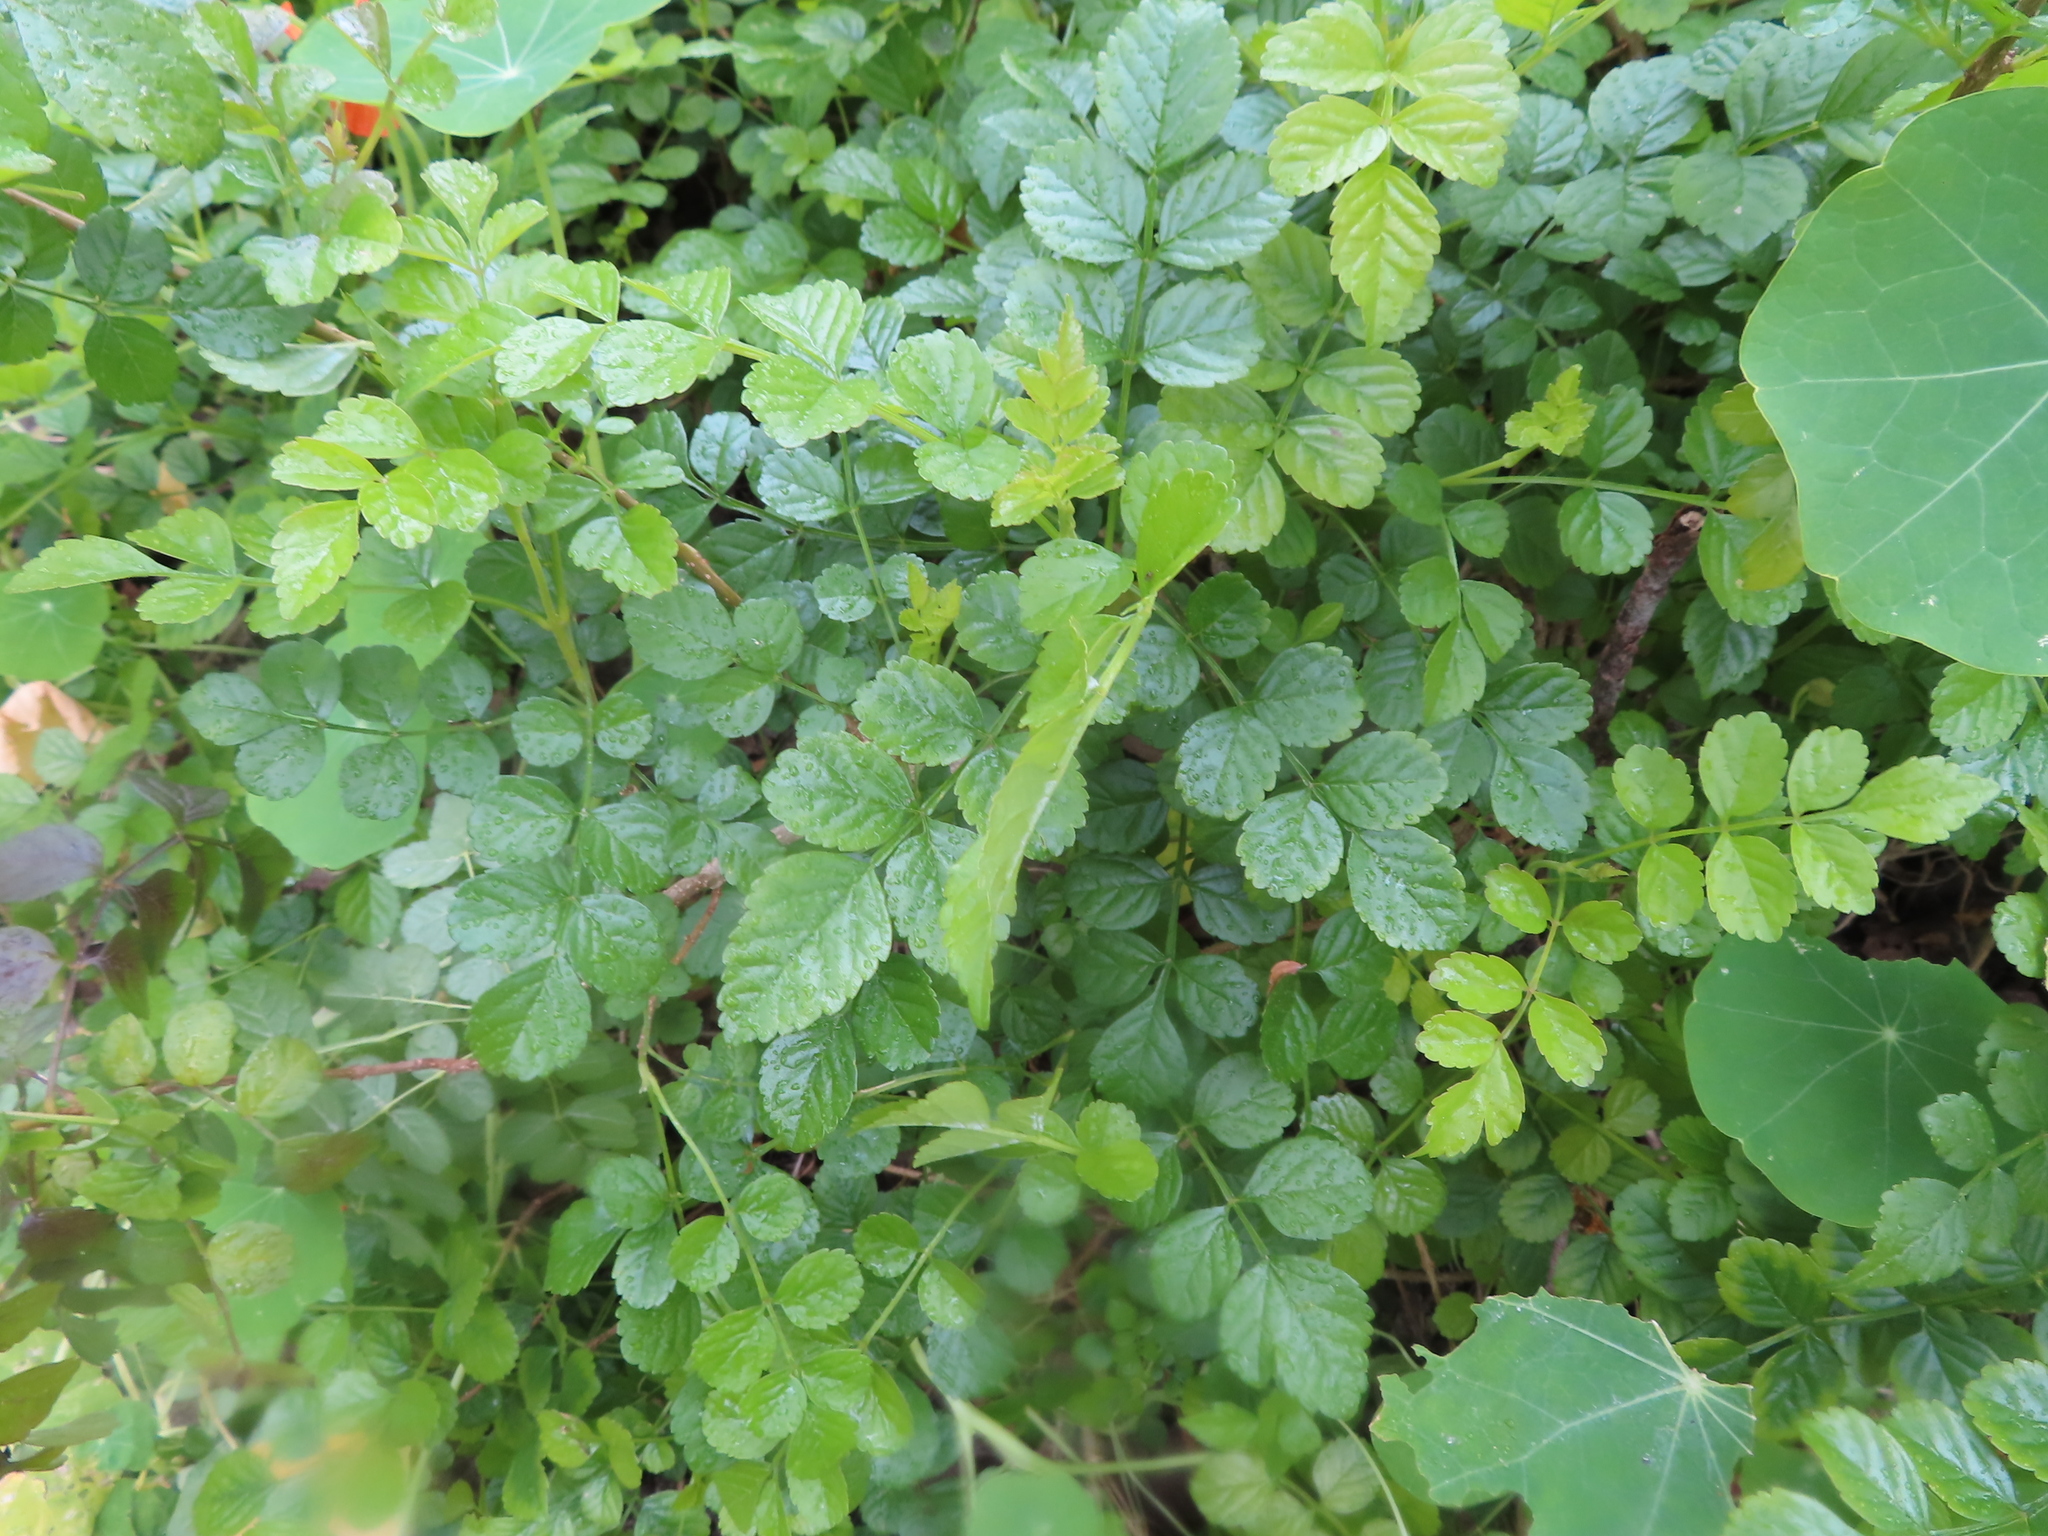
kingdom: Plantae
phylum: Tracheophyta
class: Magnoliopsida
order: Lamiales
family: Bignoniaceae
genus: Tecomaria
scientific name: Tecomaria capensis
